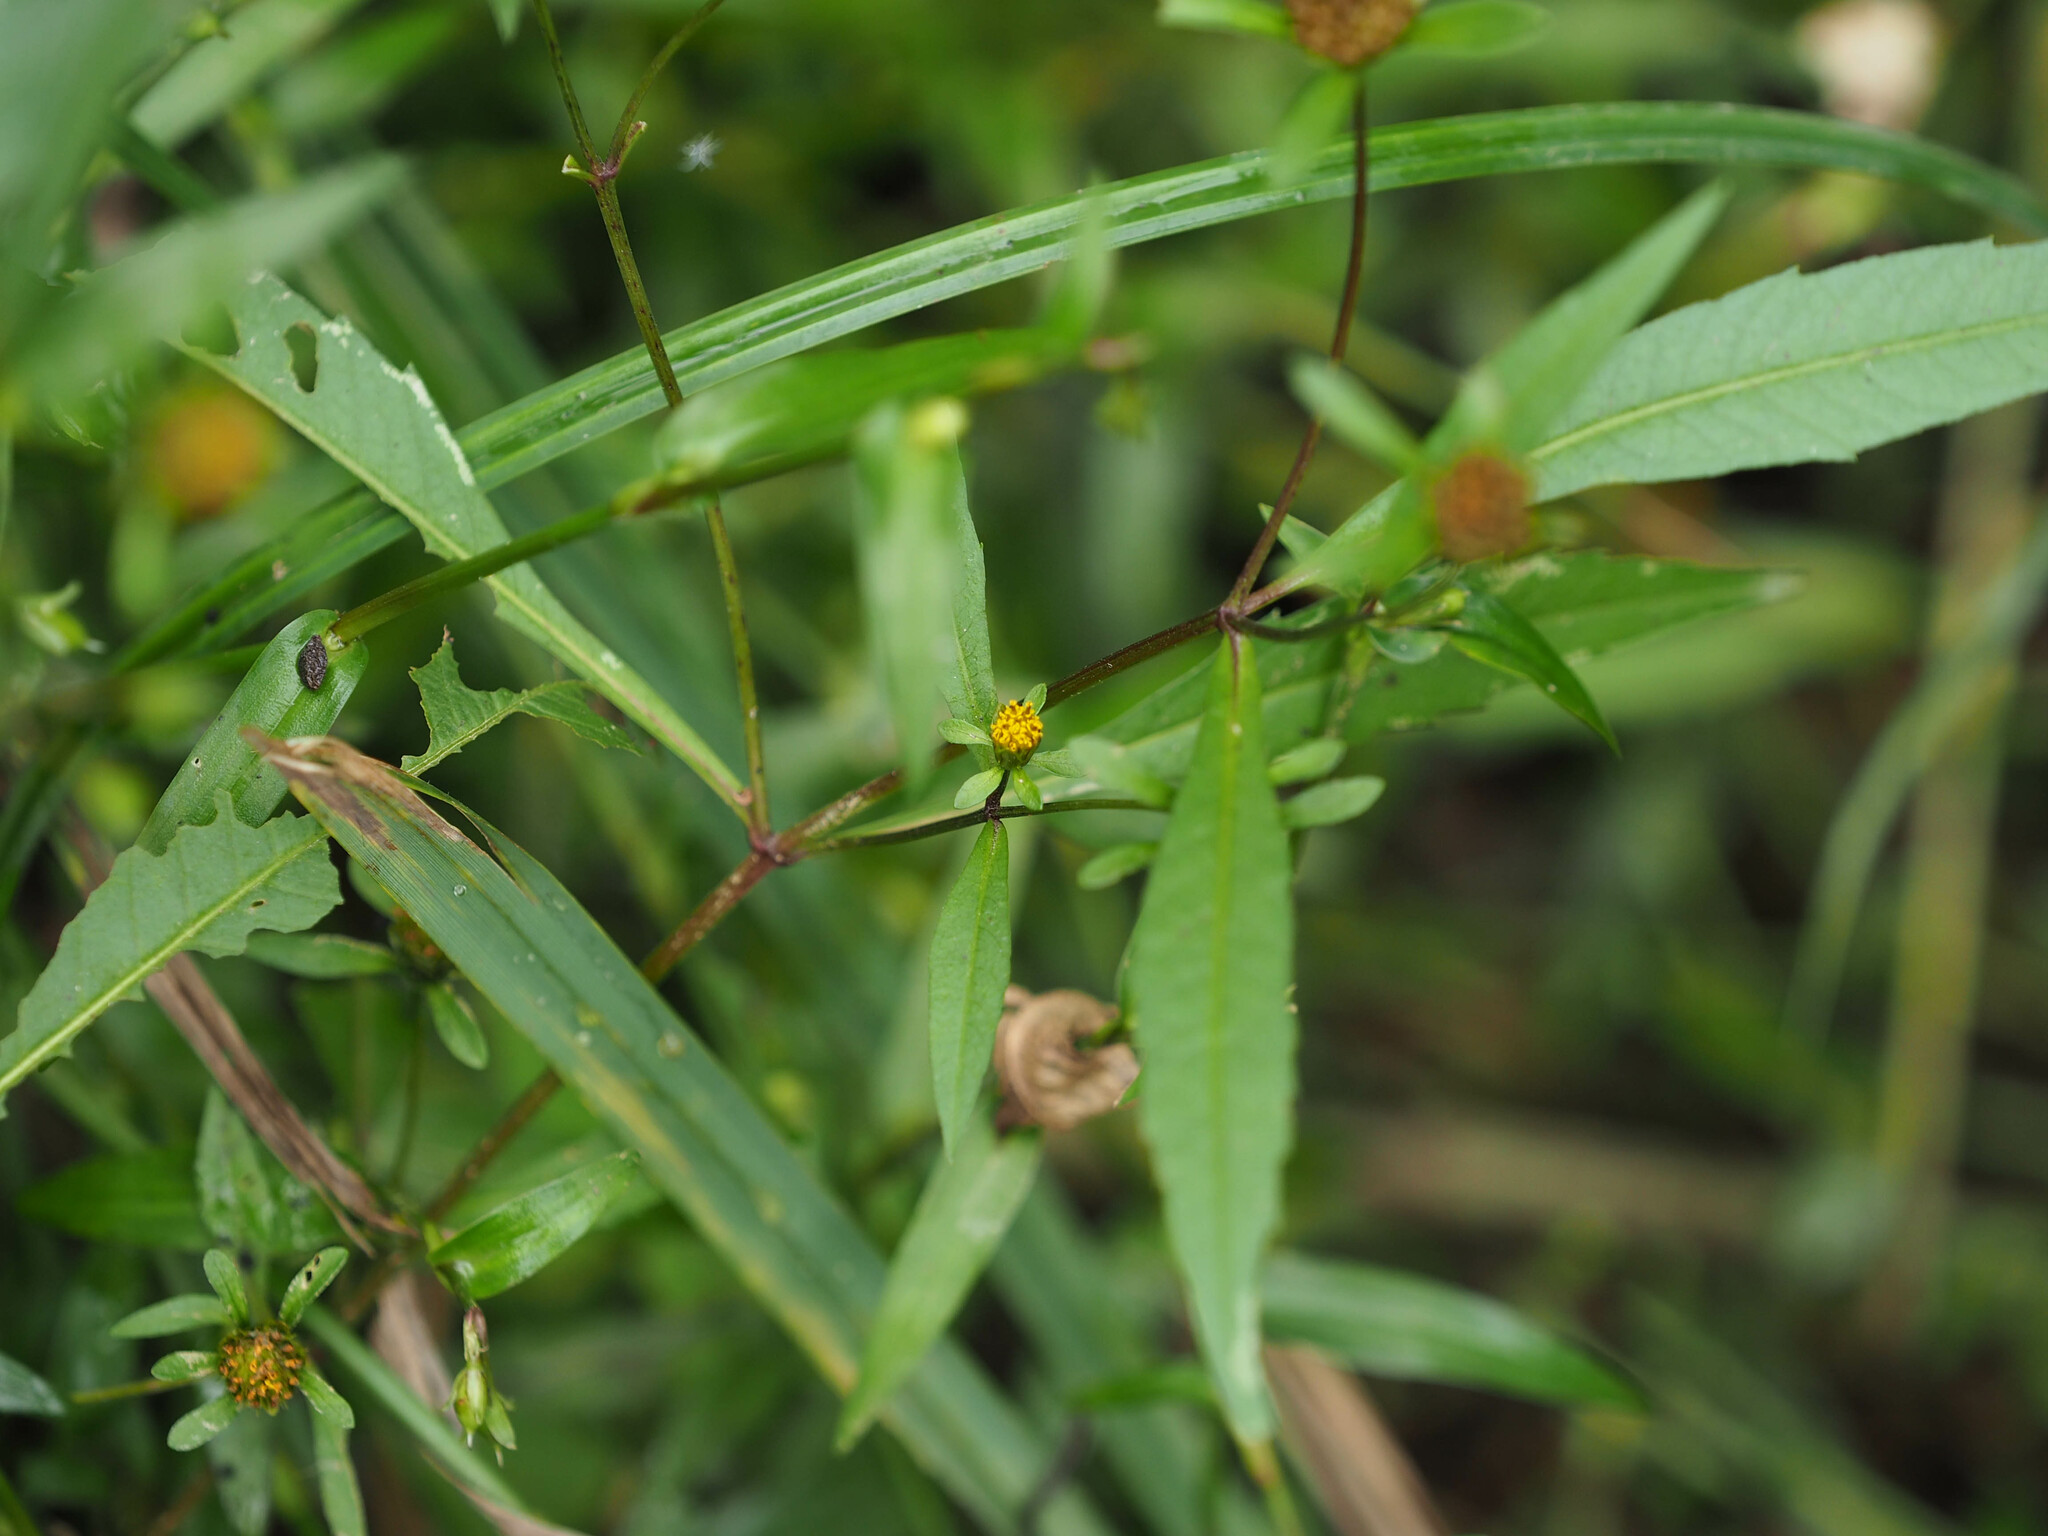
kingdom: Plantae
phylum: Tracheophyta
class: Magnoliopsida
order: Asterales
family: Asteraceae
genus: Bidens
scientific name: Bidens connata
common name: London bur-marigold
